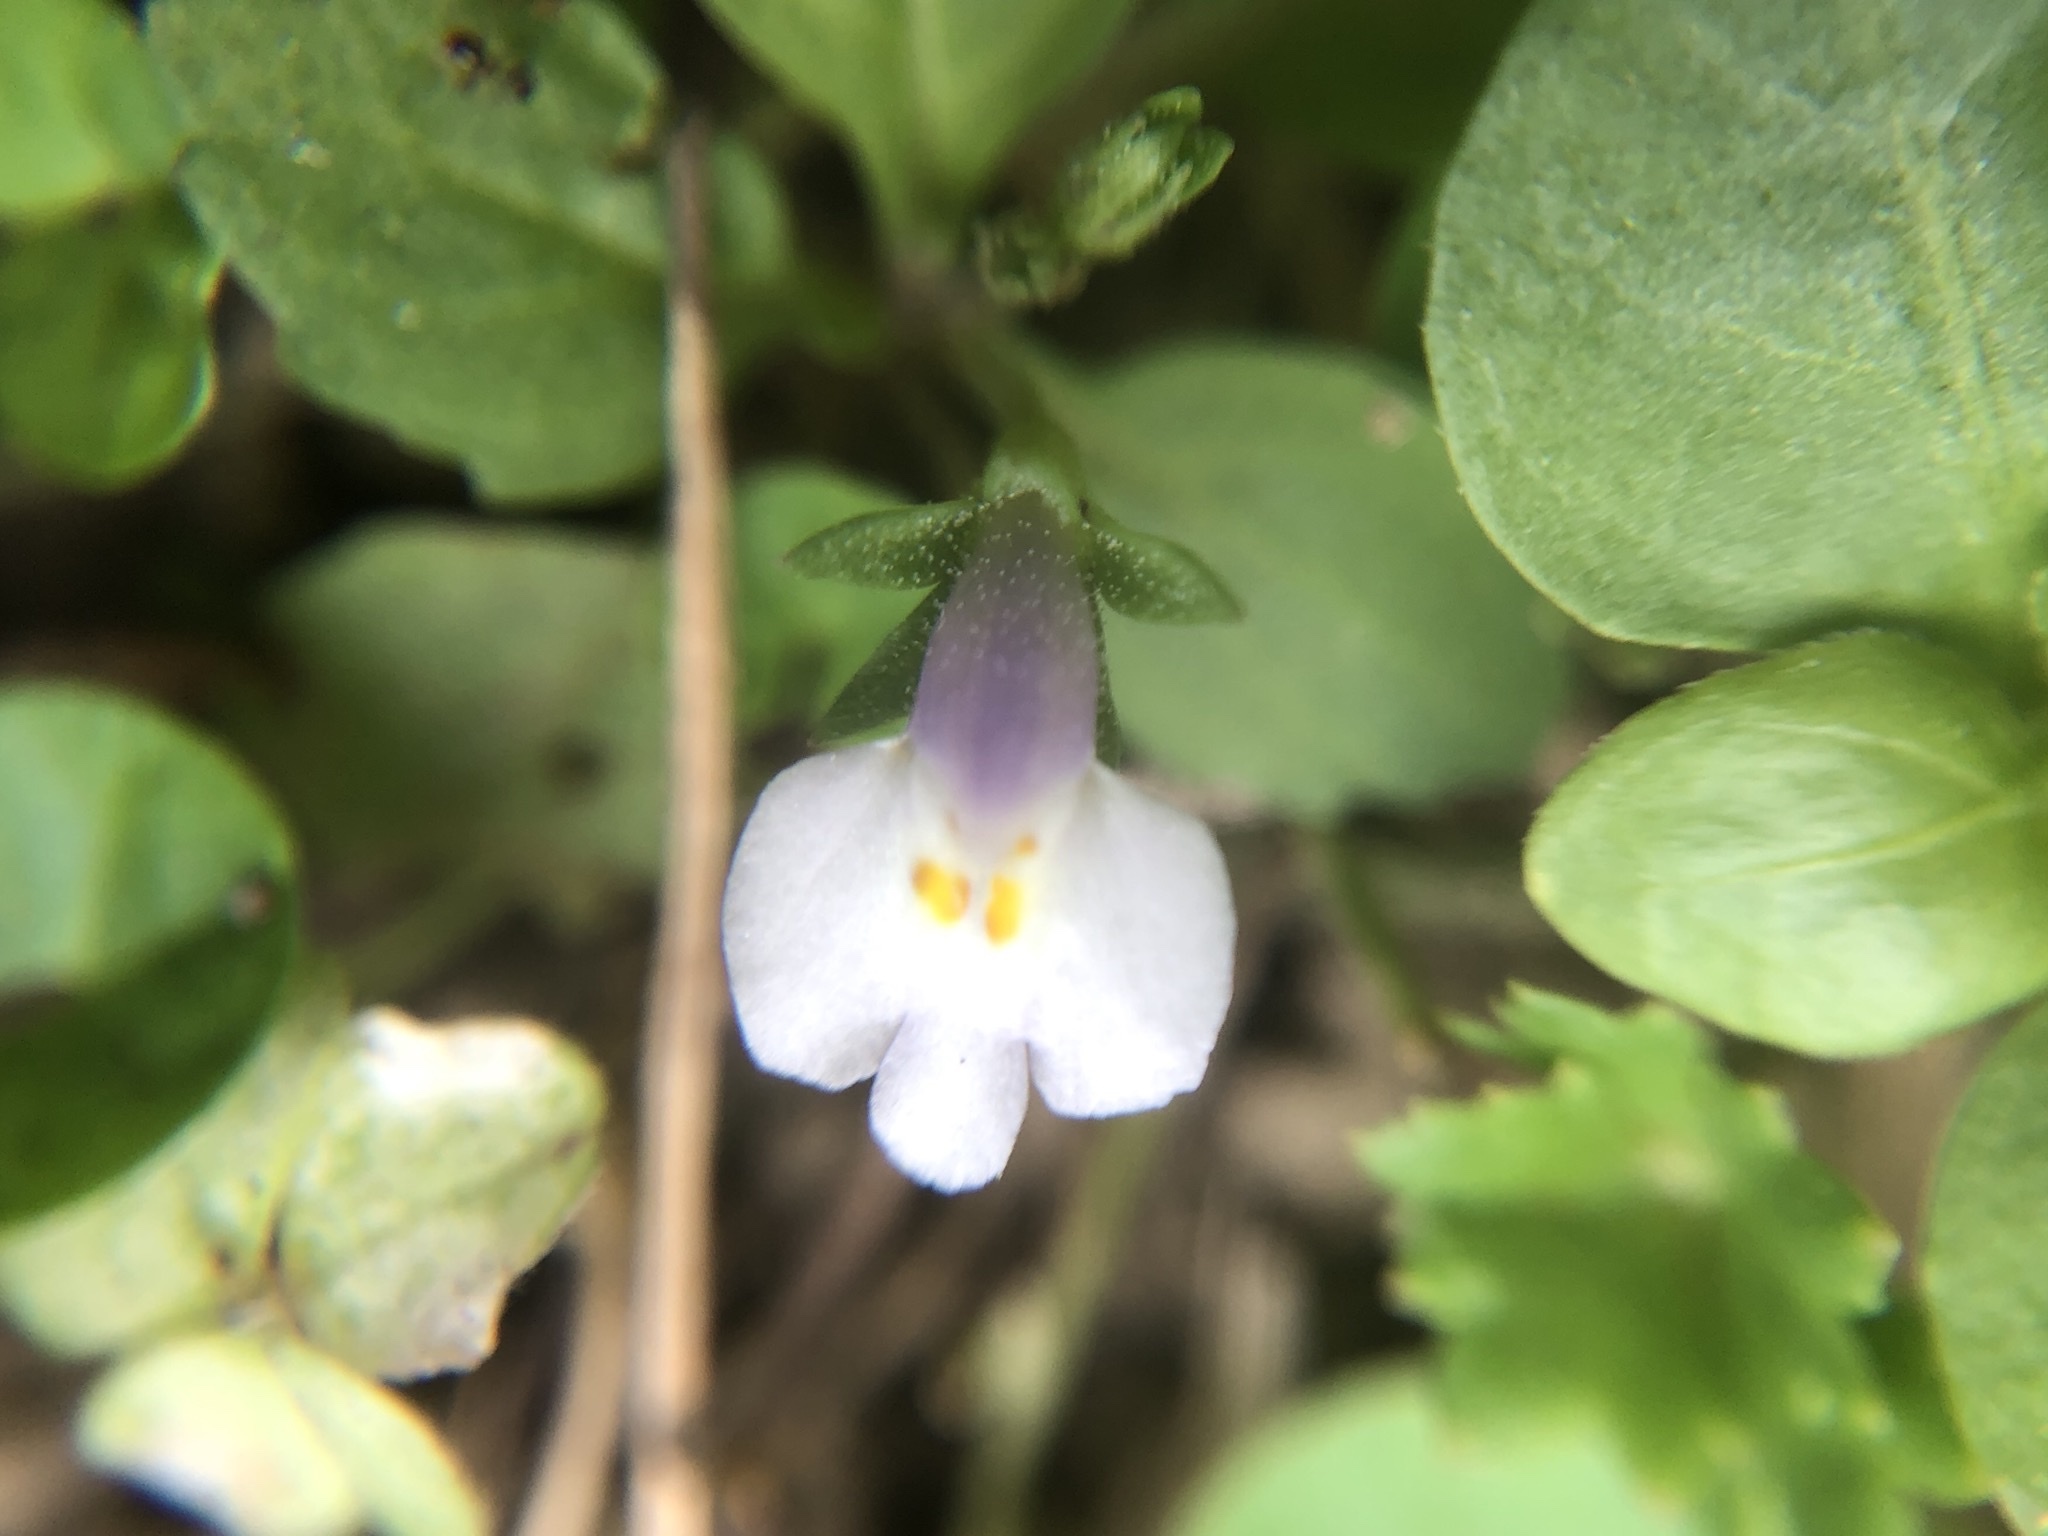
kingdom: Plantae
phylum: Tracheophyta
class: Magnoliopsida
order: Lamiales
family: Mazaceae
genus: Mazus
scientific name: Mazus pumilus
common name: Japanese mazus
